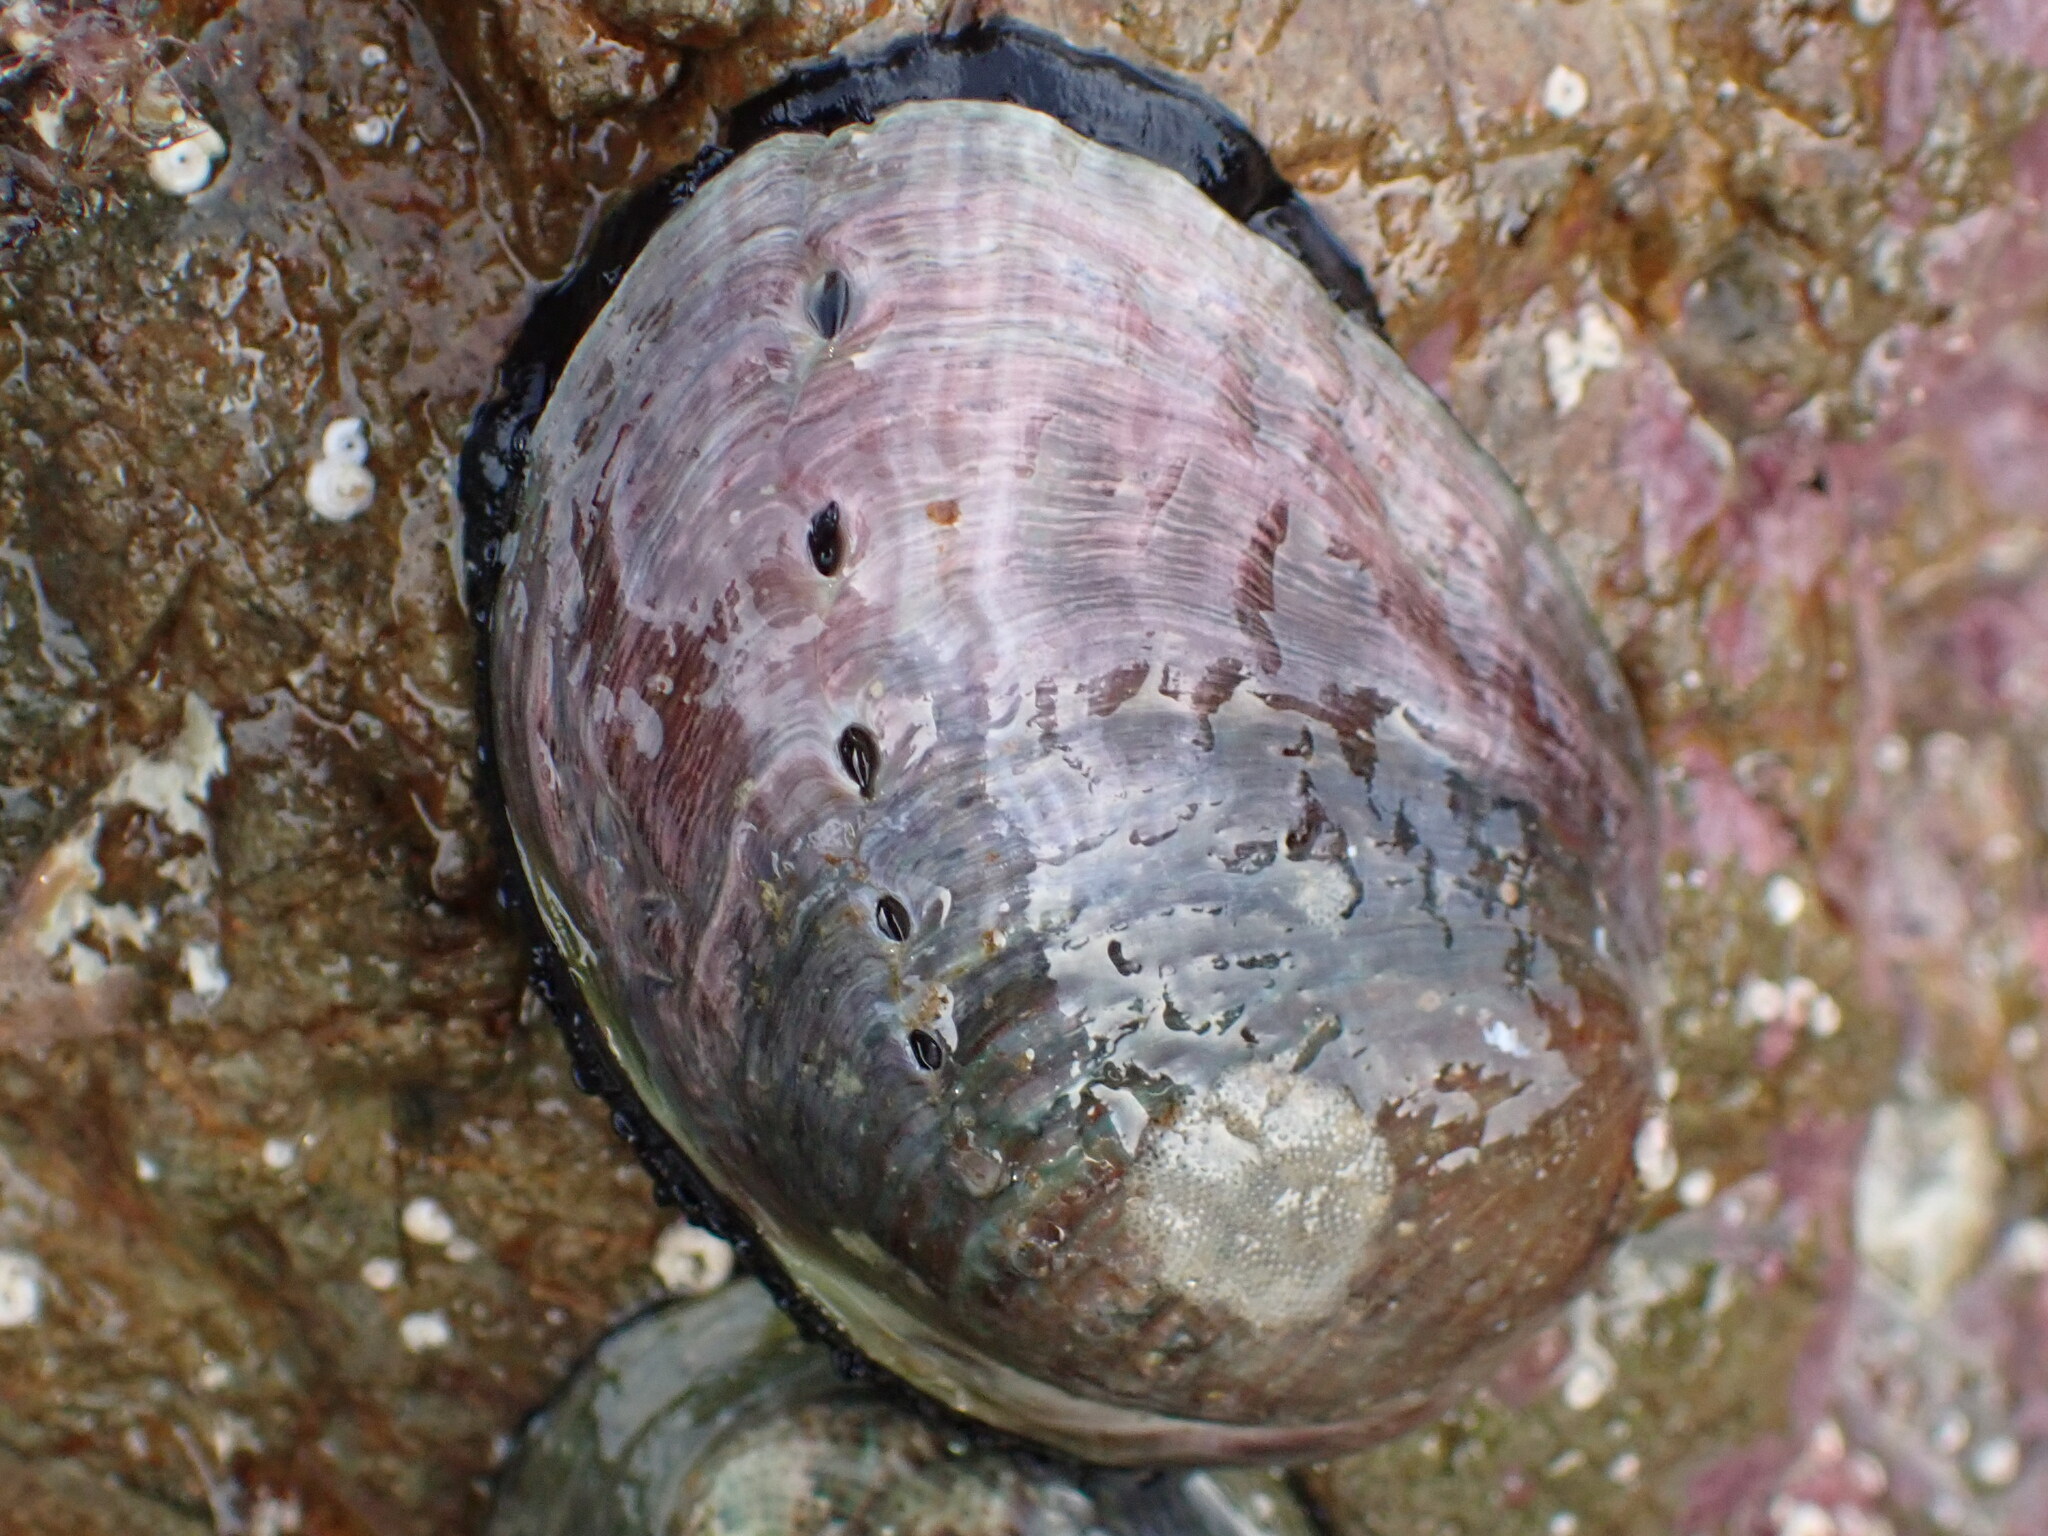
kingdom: Animalia
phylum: Mollusca
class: Gastropoda
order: Lepetellida
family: Haliotidae
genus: Haliotis
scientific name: Haliotis iris
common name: Abalone
